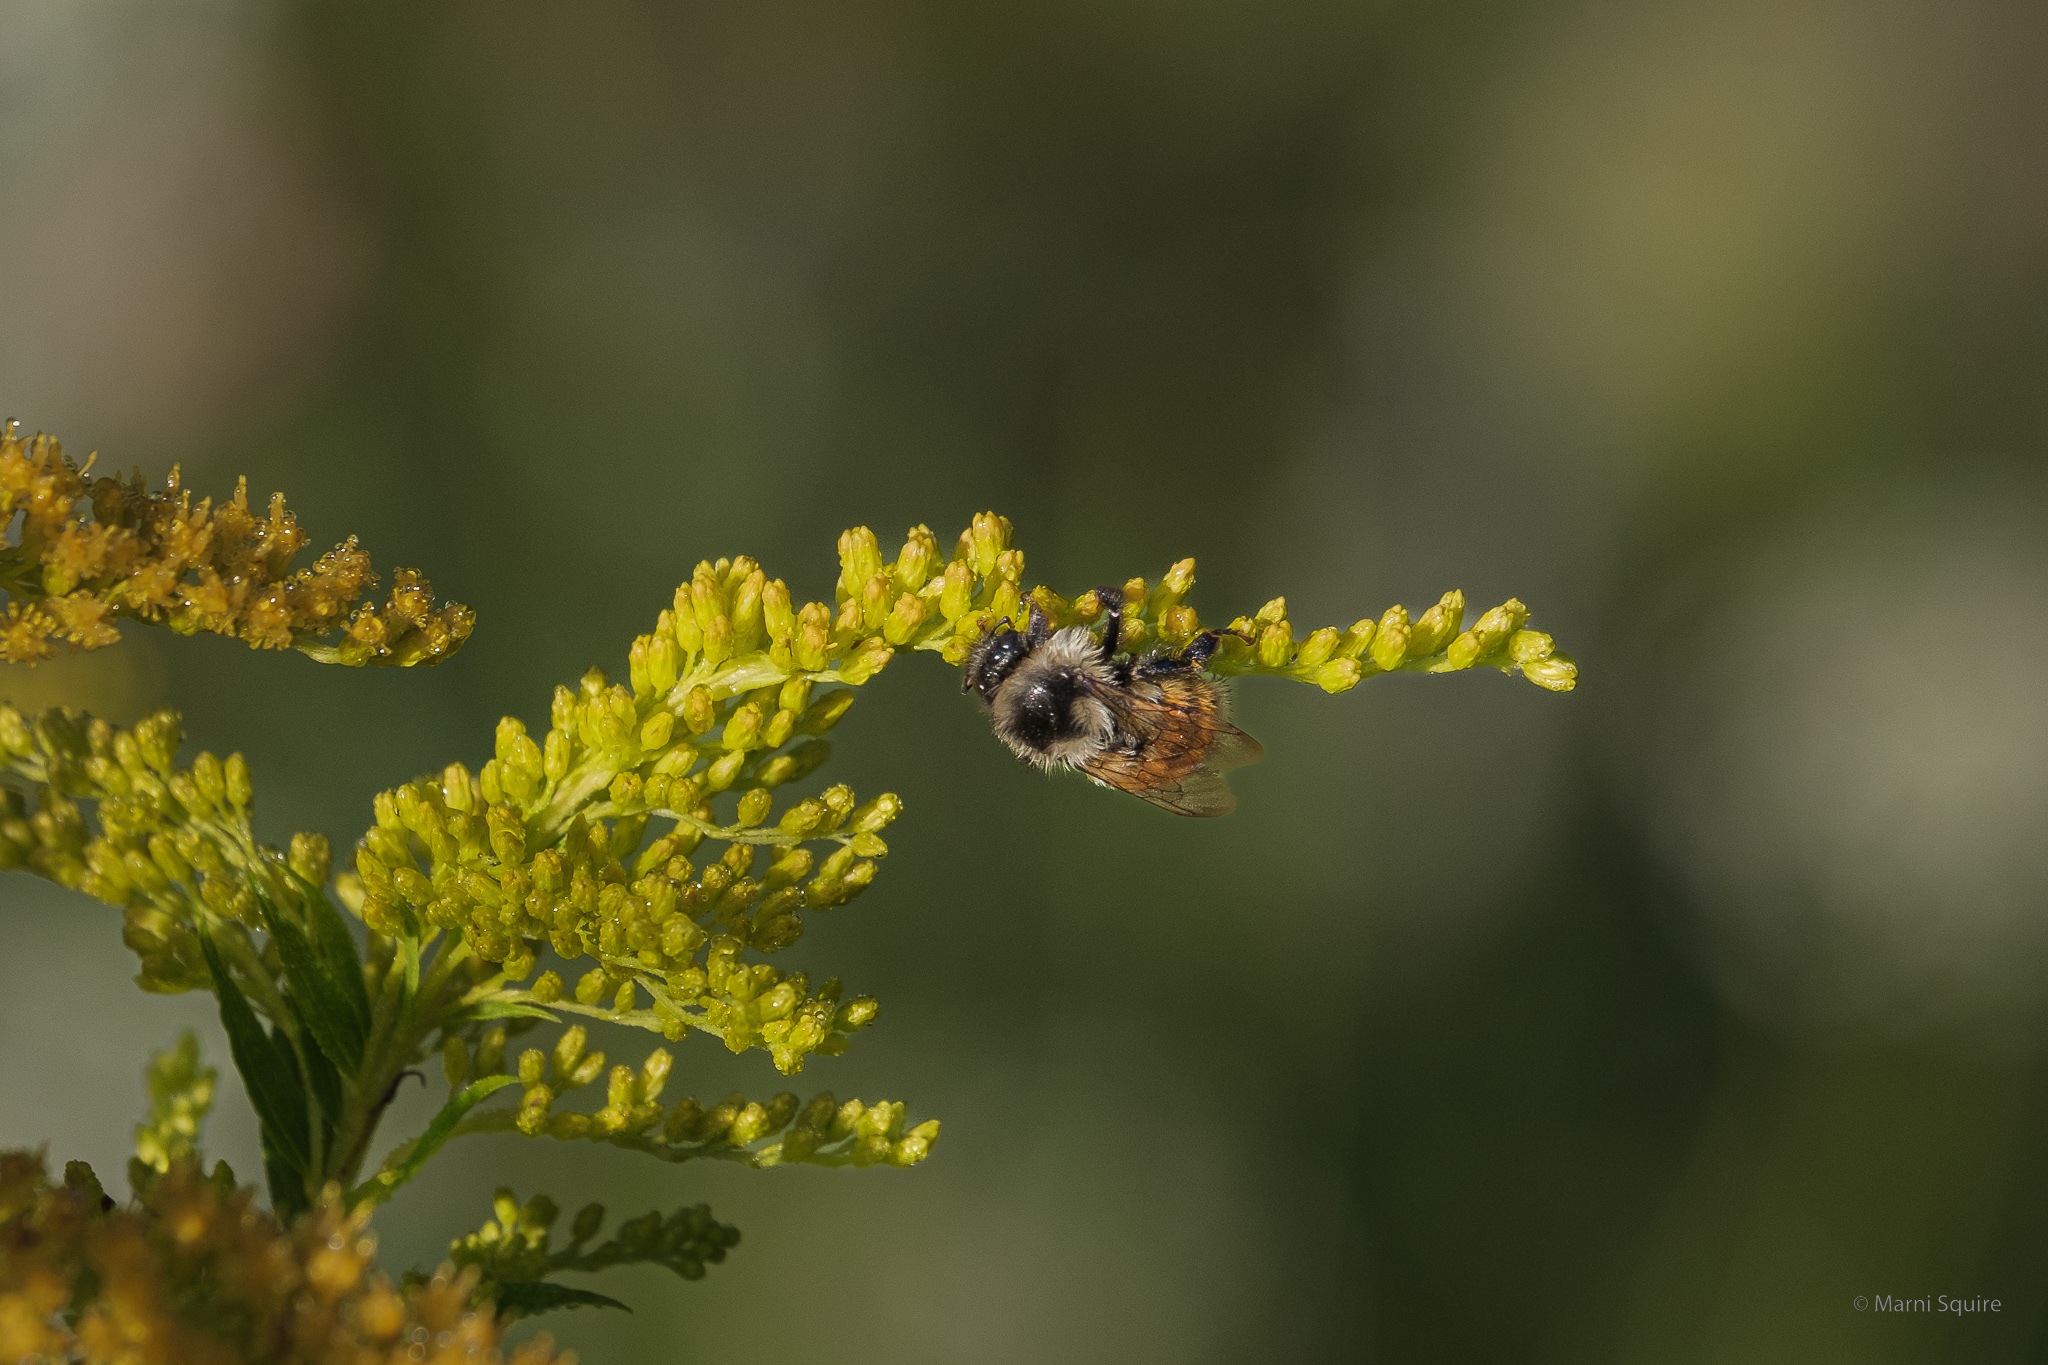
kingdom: Animalia
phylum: Arthropoda
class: Insecta
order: Hymenoptera
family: Apidae
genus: Bombus
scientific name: Bombus ternarius
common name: Tri-colored bumble bee
